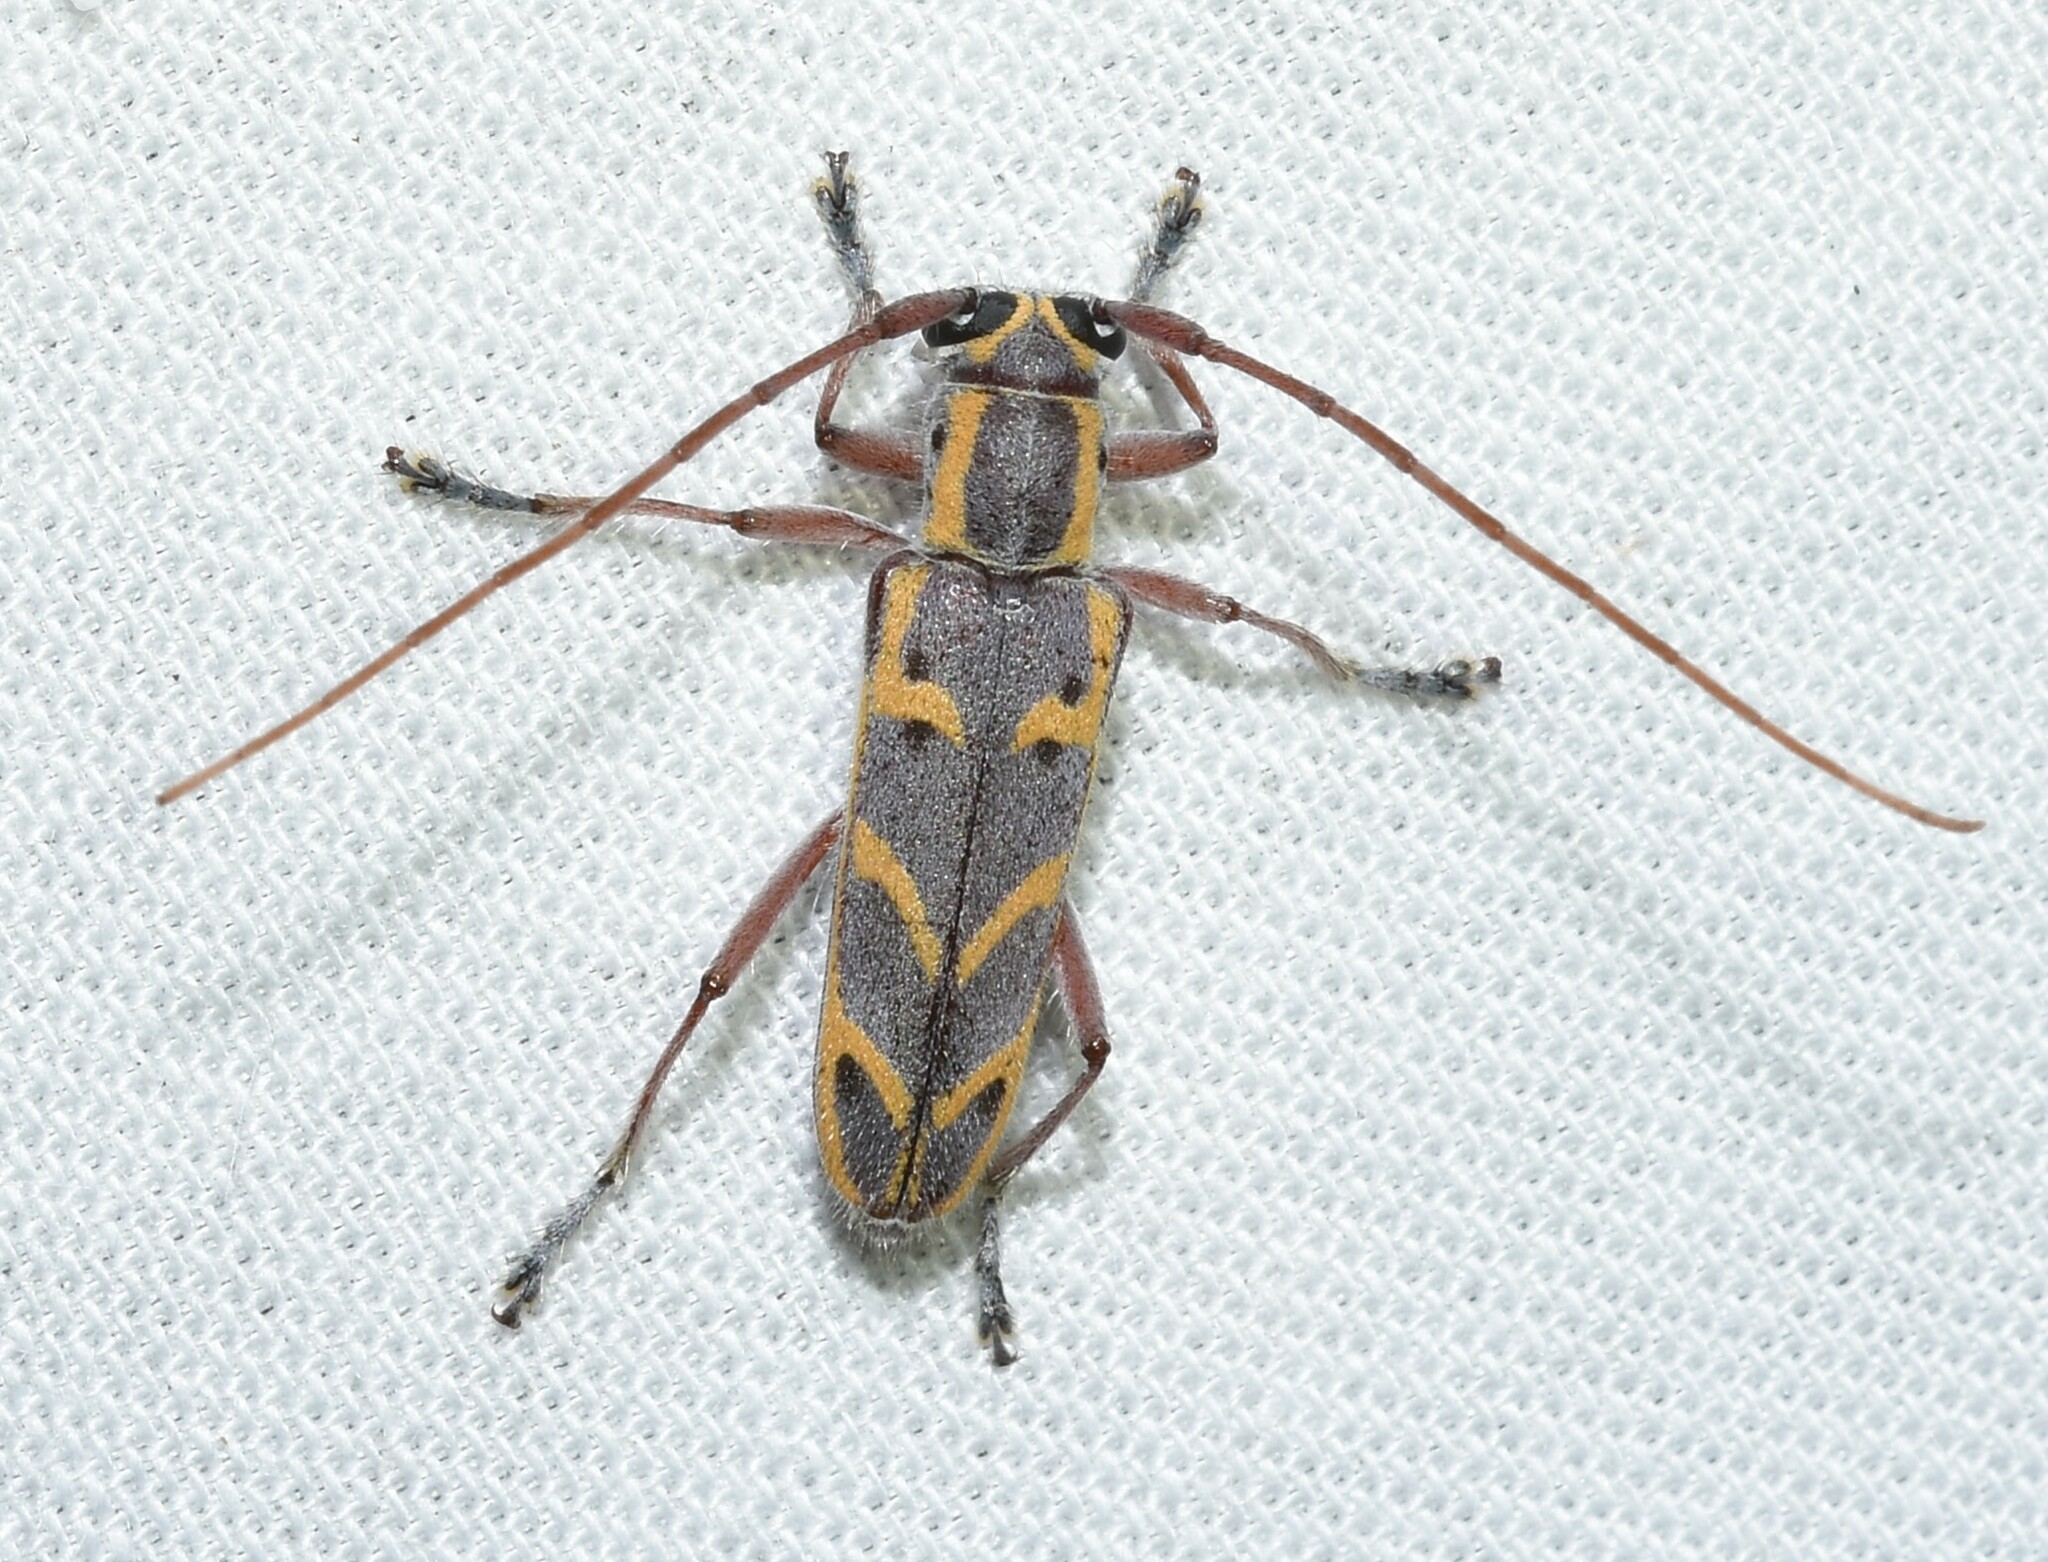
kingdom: Animalia
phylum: Arthropoda
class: Insecta
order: Coleoptera
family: Cerambycidae
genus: Saperda
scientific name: Saperda tridentata
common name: Elm borer
